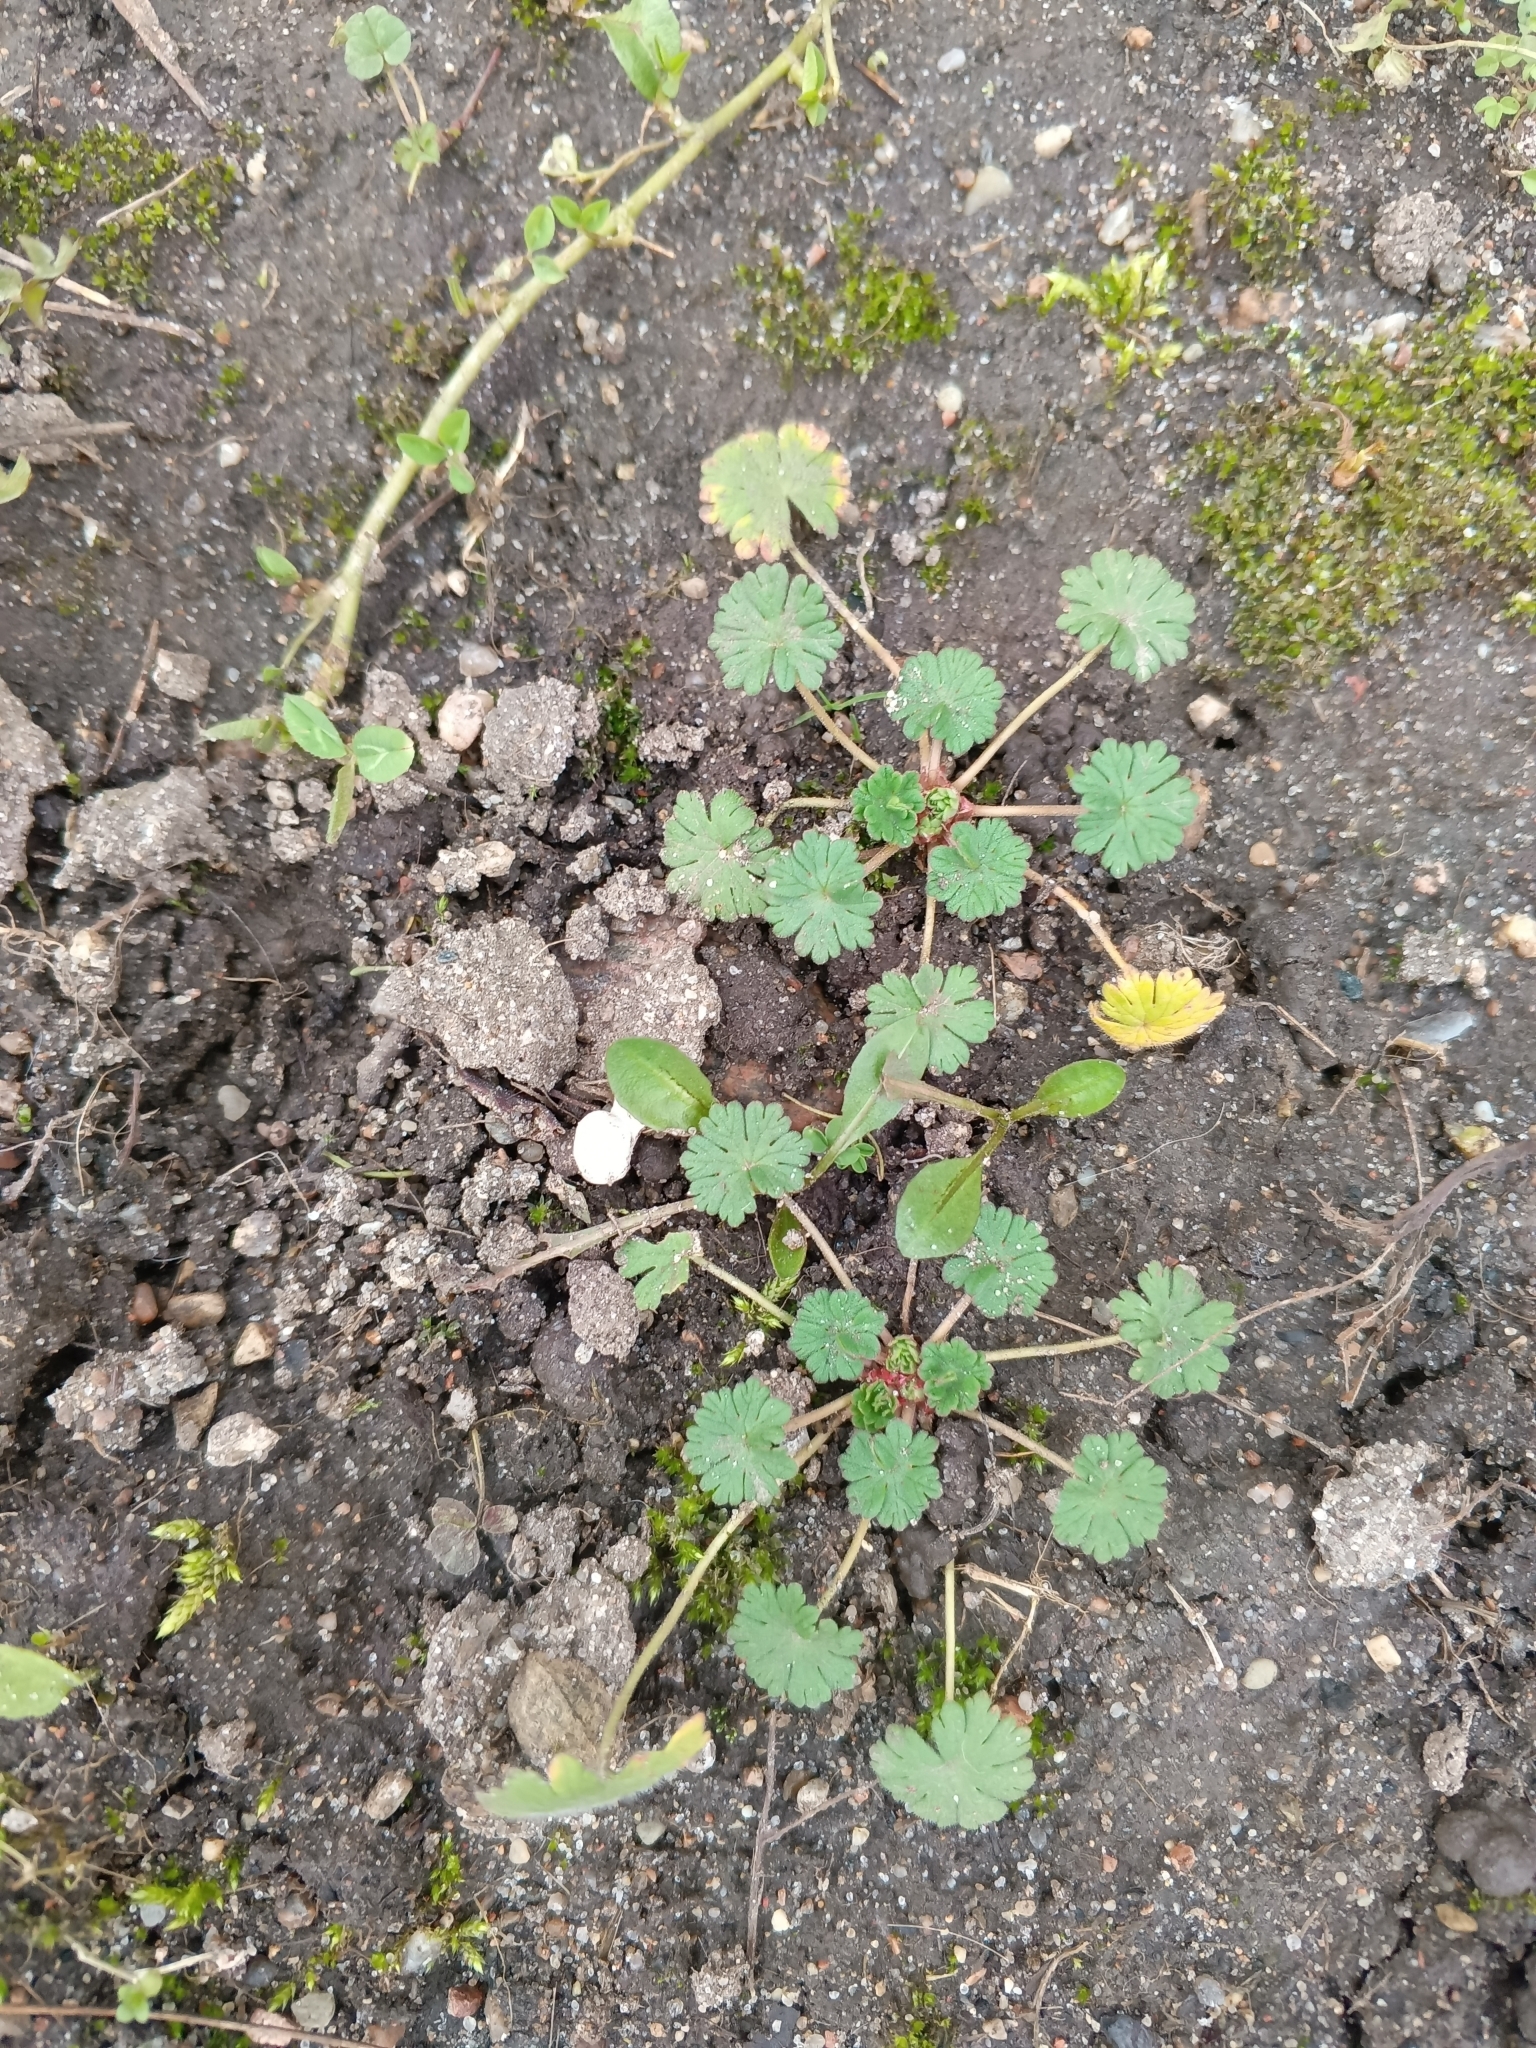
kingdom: Plantae
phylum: Tracheophyta
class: Magnoliopsida
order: Geraniales
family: Geraniaceae
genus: Geranium
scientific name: Geranium pusillum
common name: Small geranium
